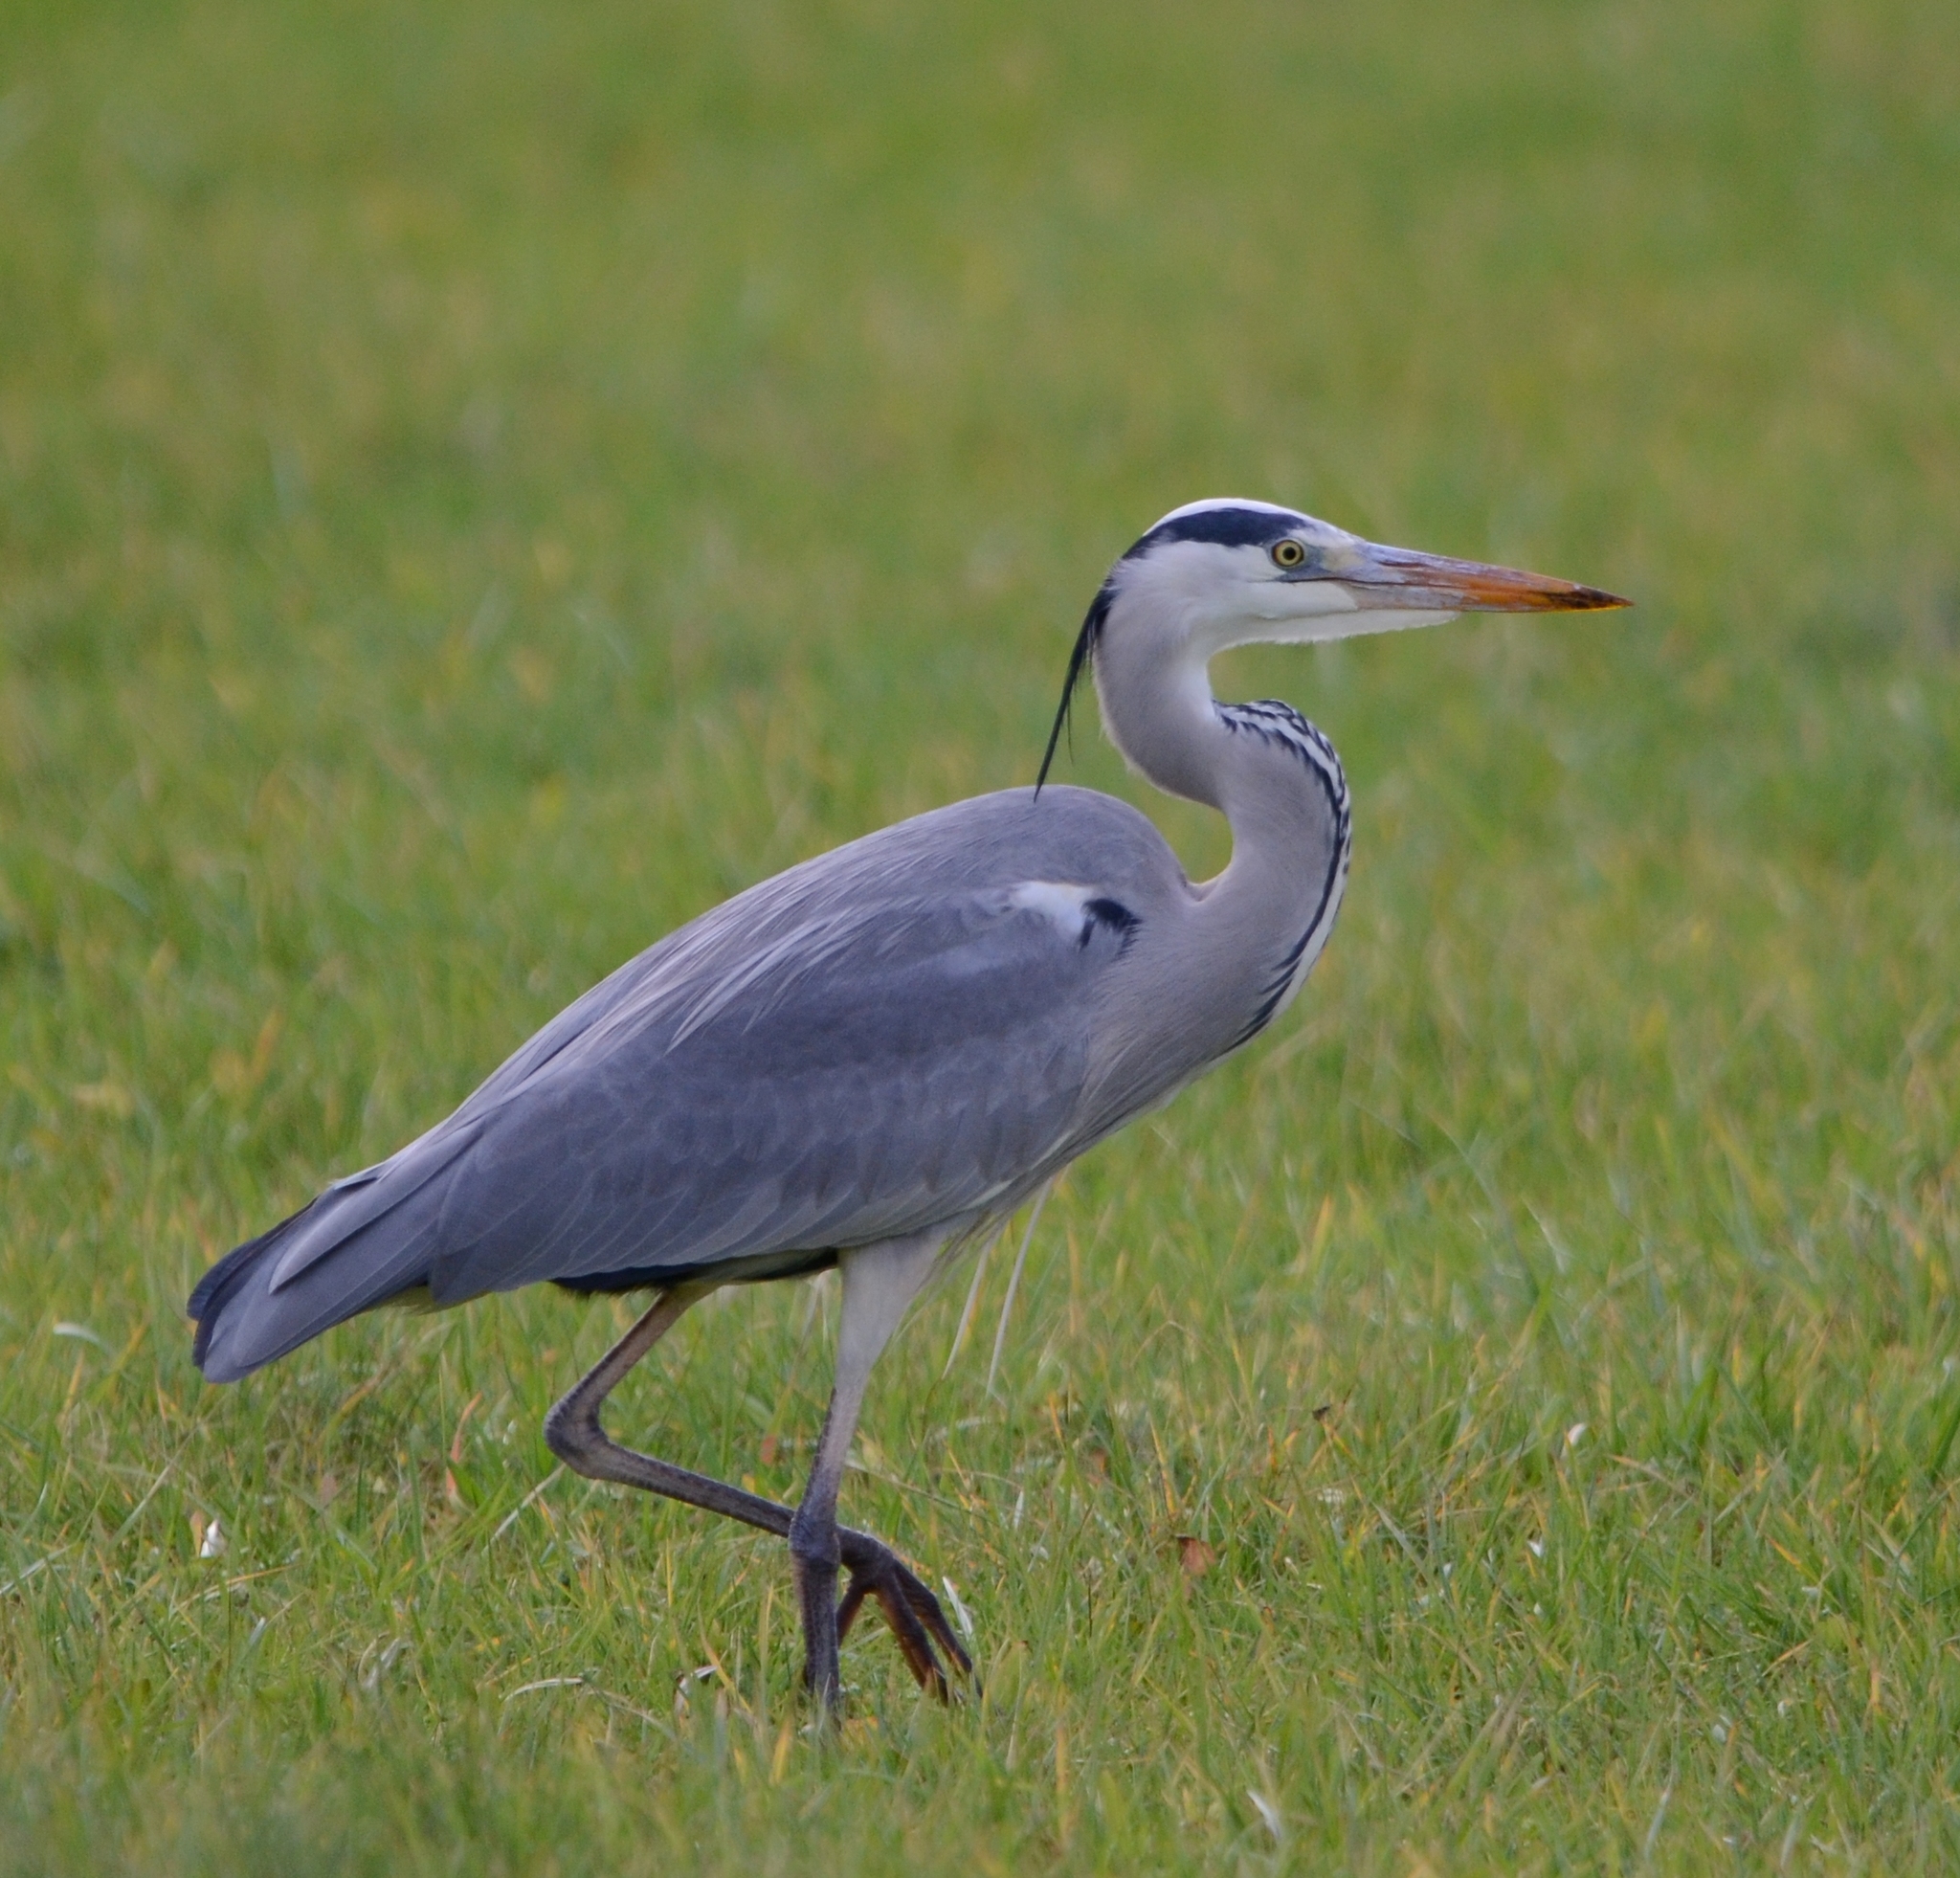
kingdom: Animalia
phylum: Chordata
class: Aves
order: Pelecaniformes
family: Ardeidae
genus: Ardea
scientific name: Ardea cinerea
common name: Grey heron
